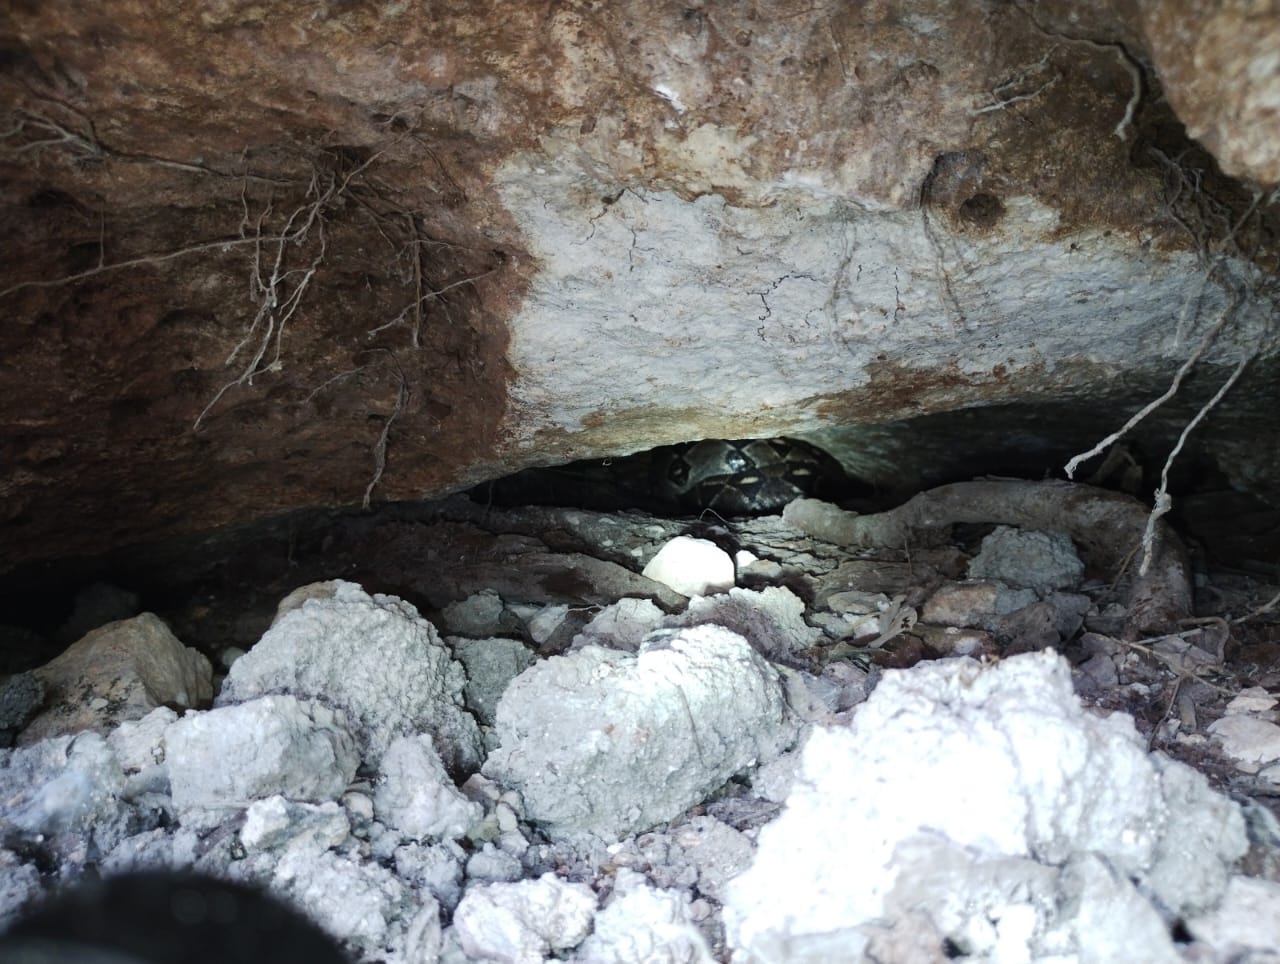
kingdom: Animalia
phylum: Chordata
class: Squamata
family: Boidae
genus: Boa
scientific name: Boa imperator
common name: Central american boa
